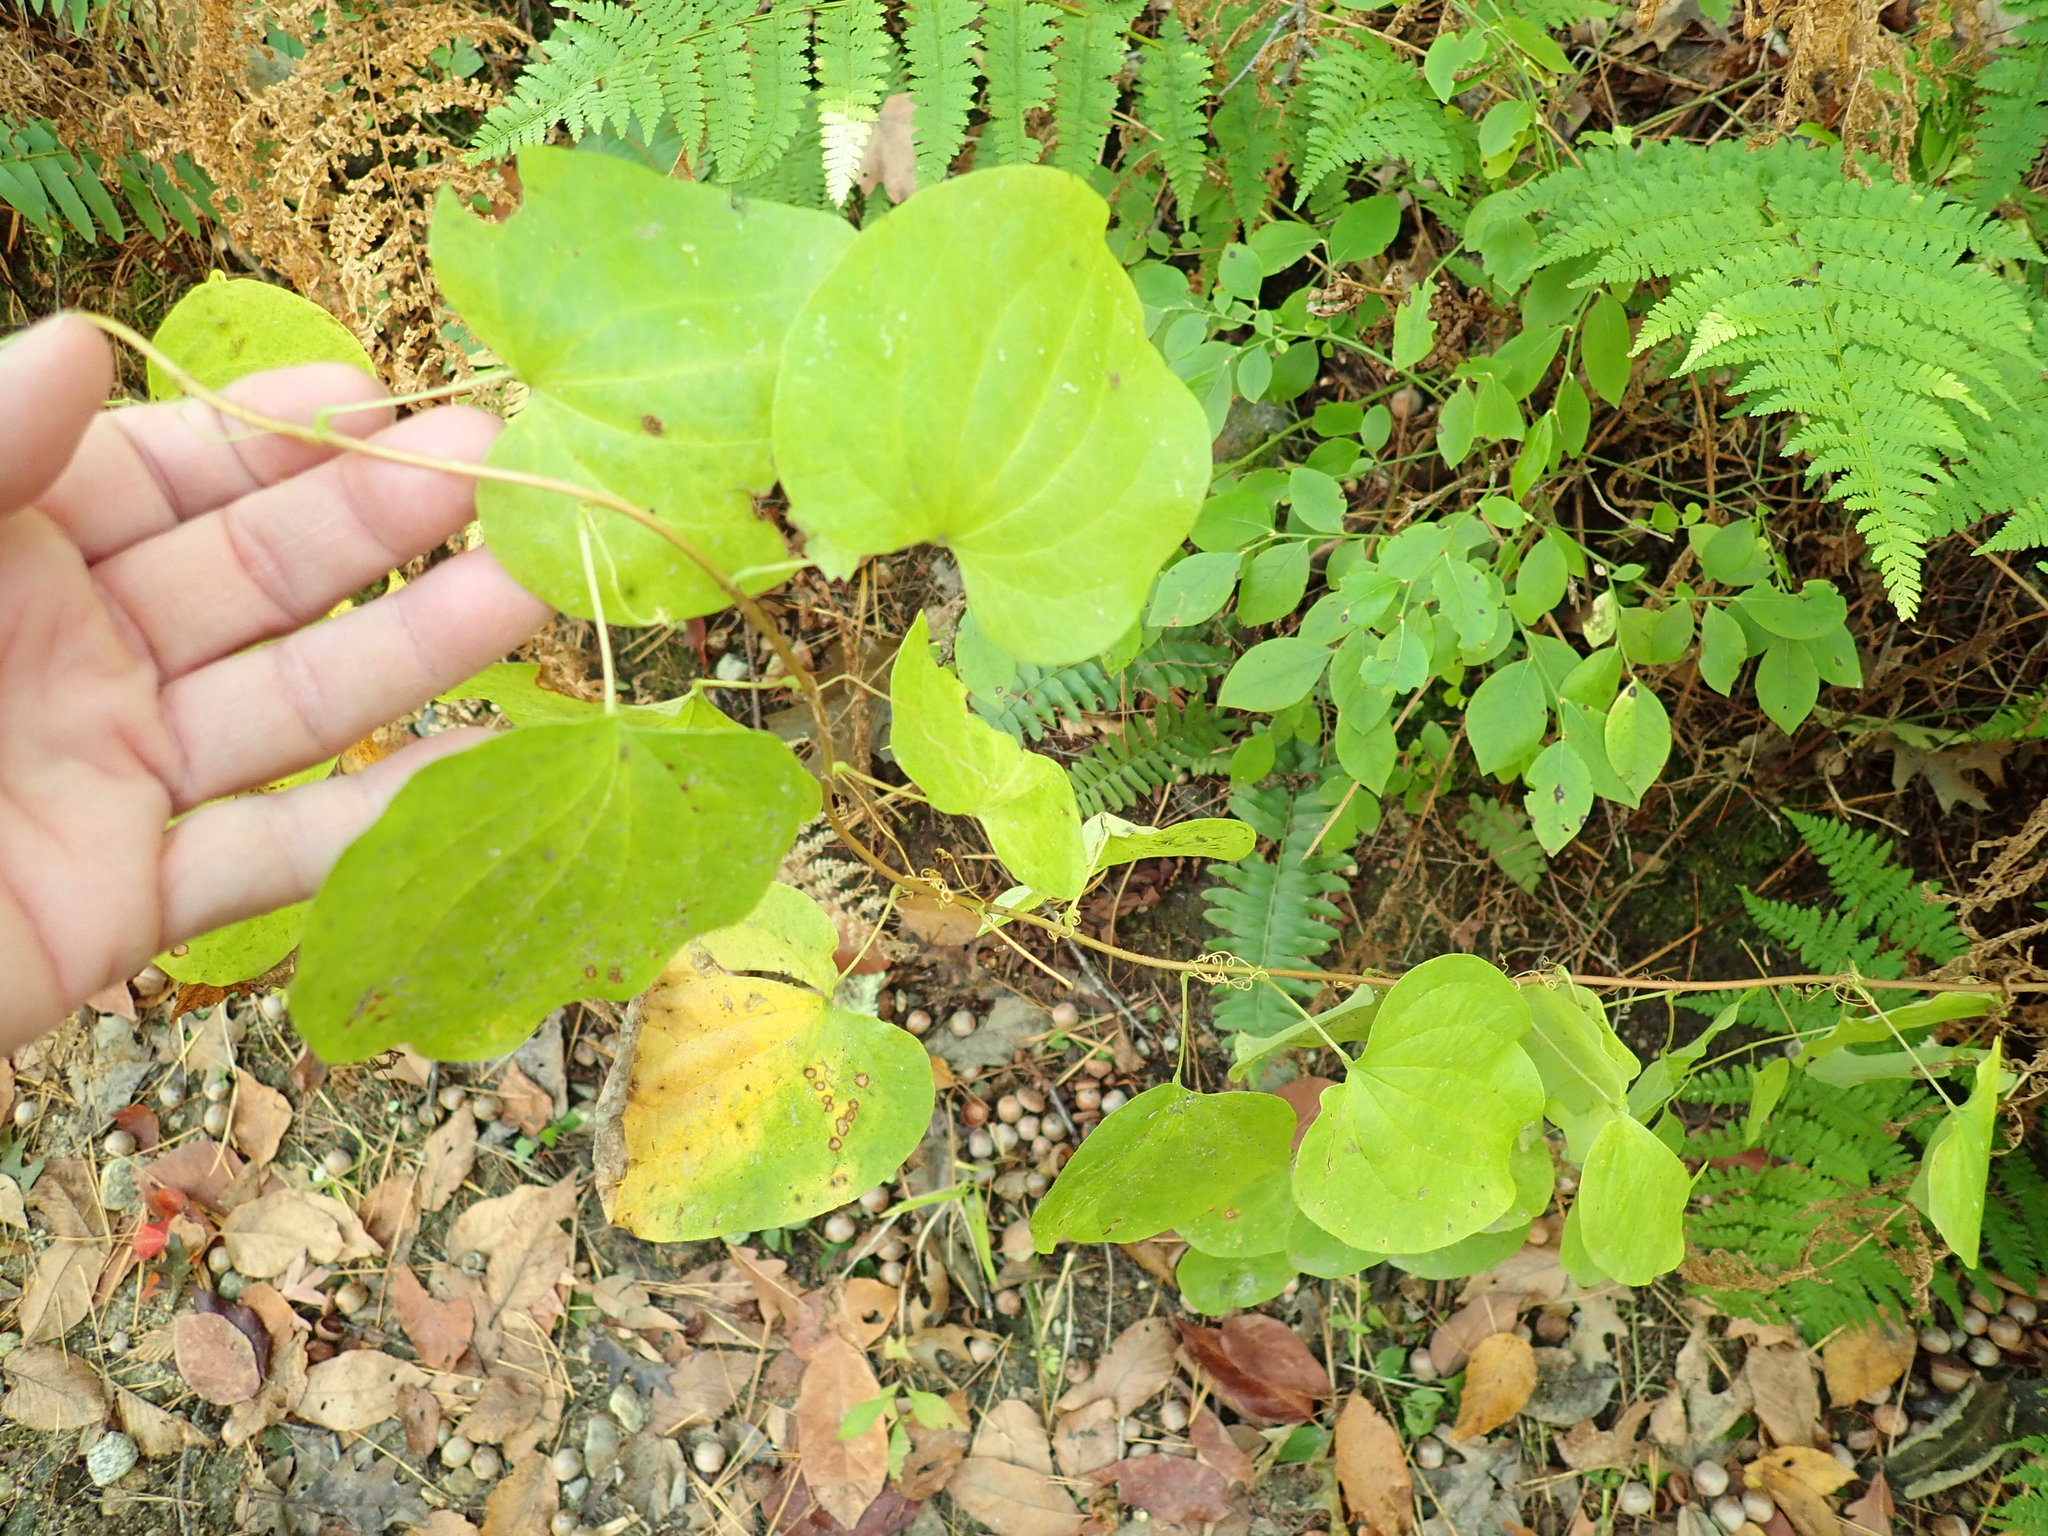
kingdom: Plantae
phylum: Tracheophyta
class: Liliopsida
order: Liliales
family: Smilacaceae
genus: Smilax
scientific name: Smilax herbacea
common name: Jacob's-ladder
